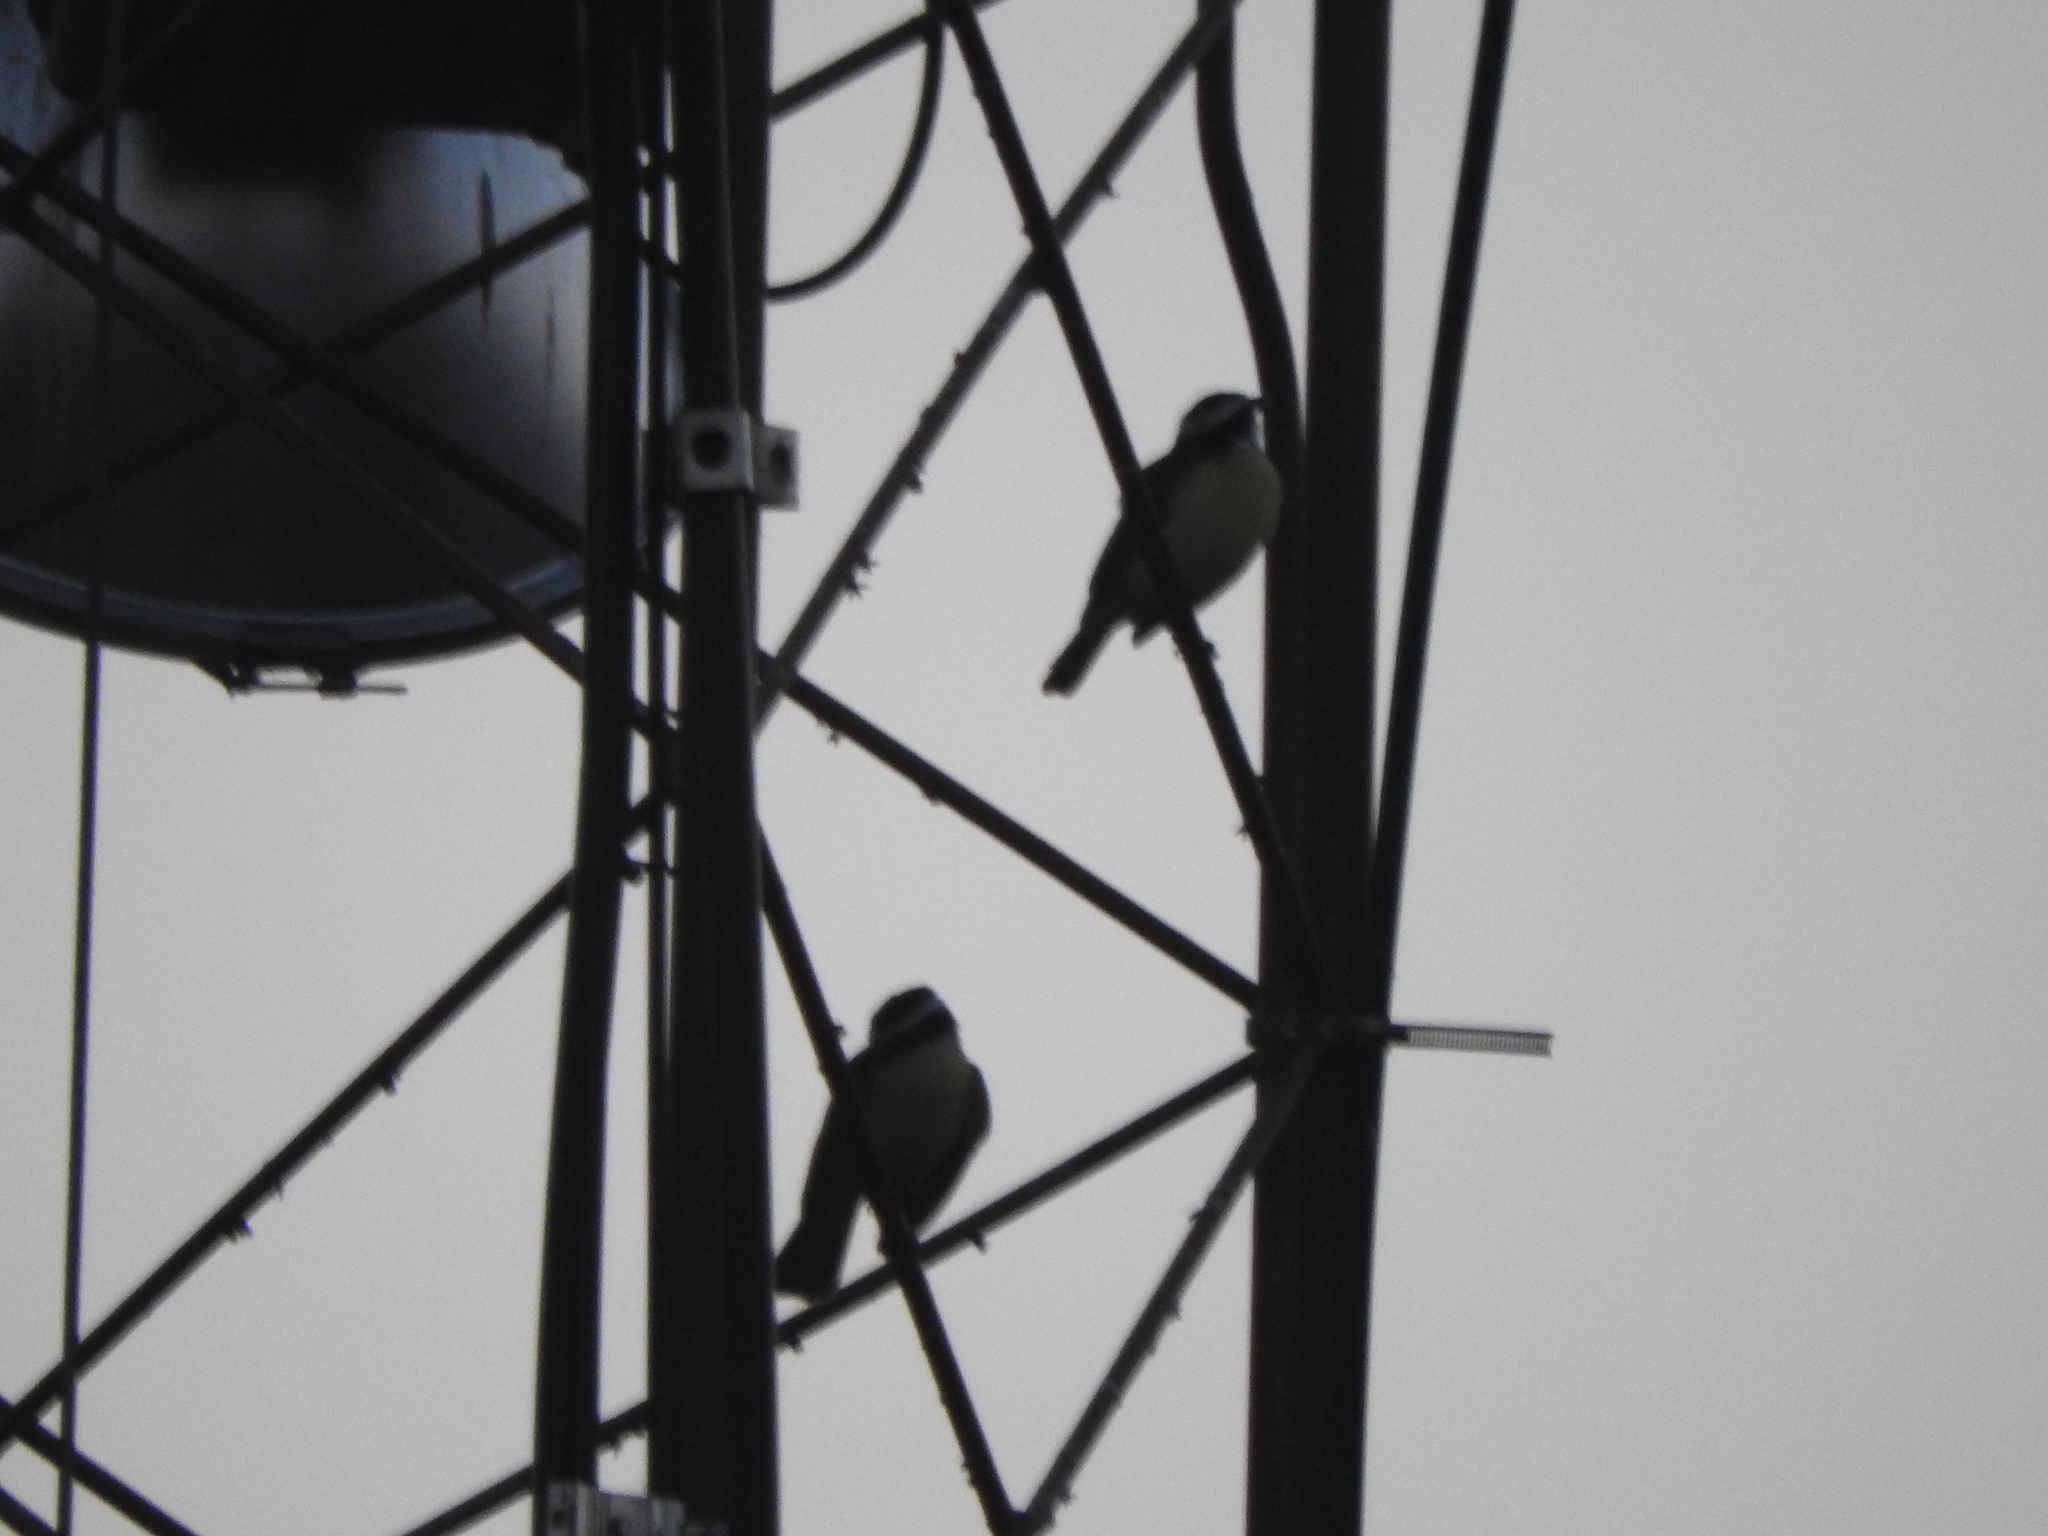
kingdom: Animalia
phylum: Chordata
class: Aves
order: Passeriformes
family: Tyrannidae
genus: Pitangus
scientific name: Pitangus sulphuratus
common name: Great kiskadee
